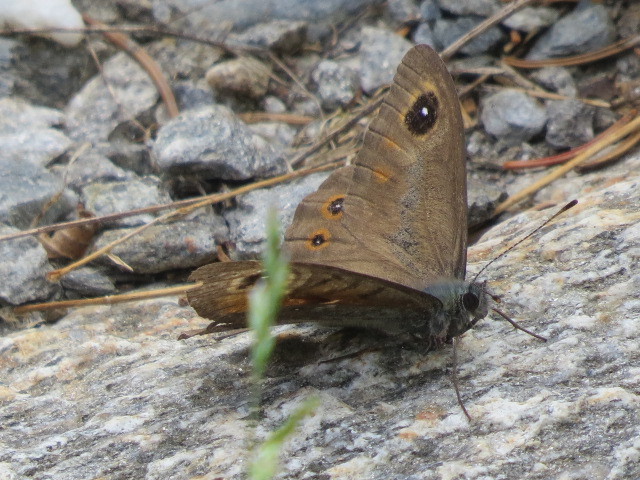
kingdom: Animalia
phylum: Arthropoda
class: Insecta
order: Lepidoptera
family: Nymphalidae
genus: Pararge
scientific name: Pararge Lasiommata maera
